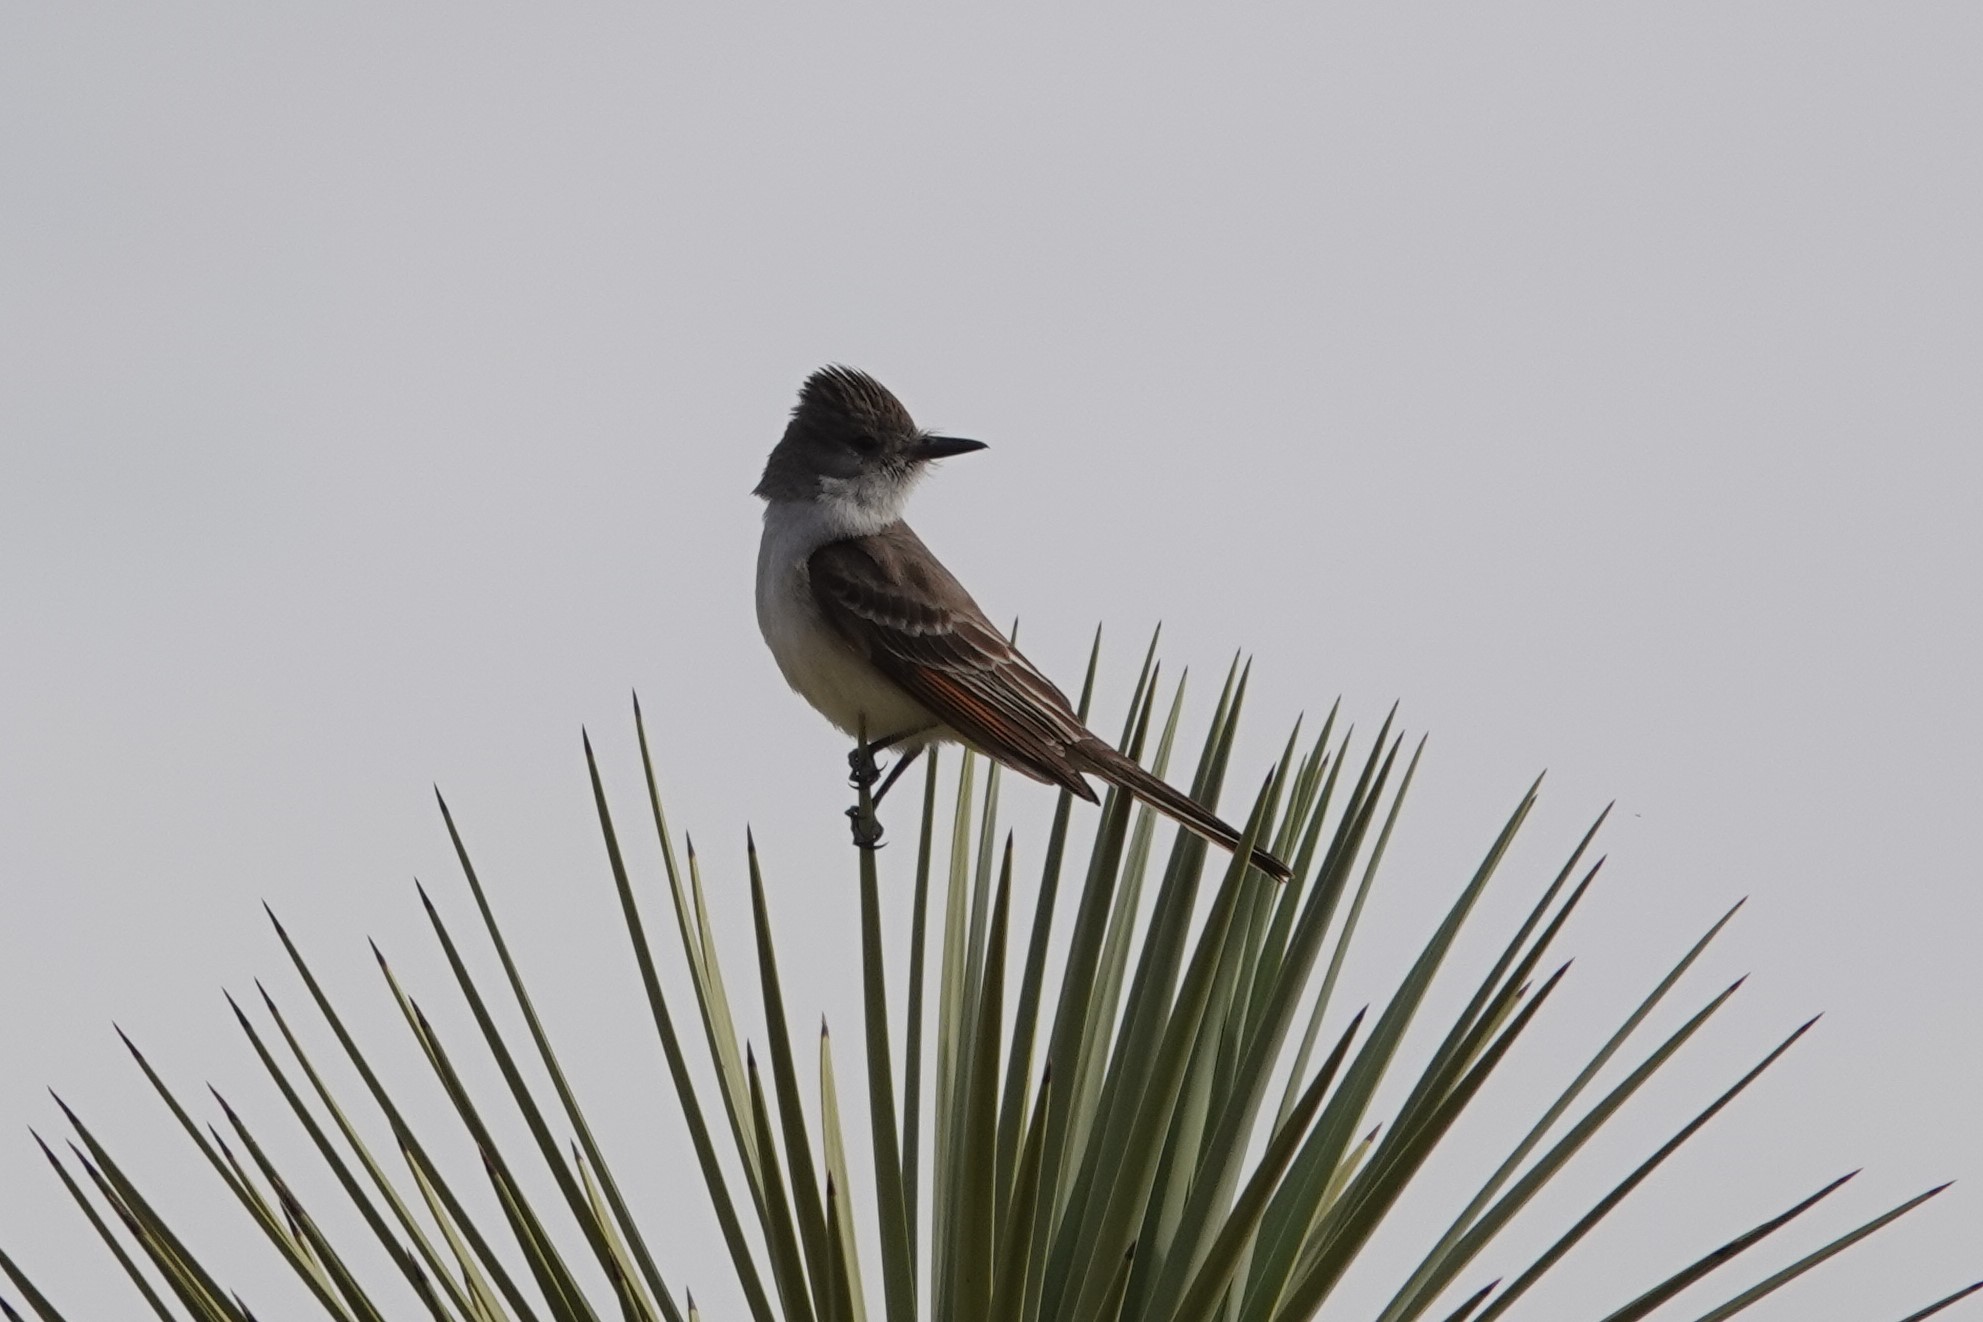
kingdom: Animalia
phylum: Chordata
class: Aves
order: Passeriformes
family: Tyrannidae
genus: Myiarchus
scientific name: Myiarchus cinerascens
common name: Ash-throated flycatcher
